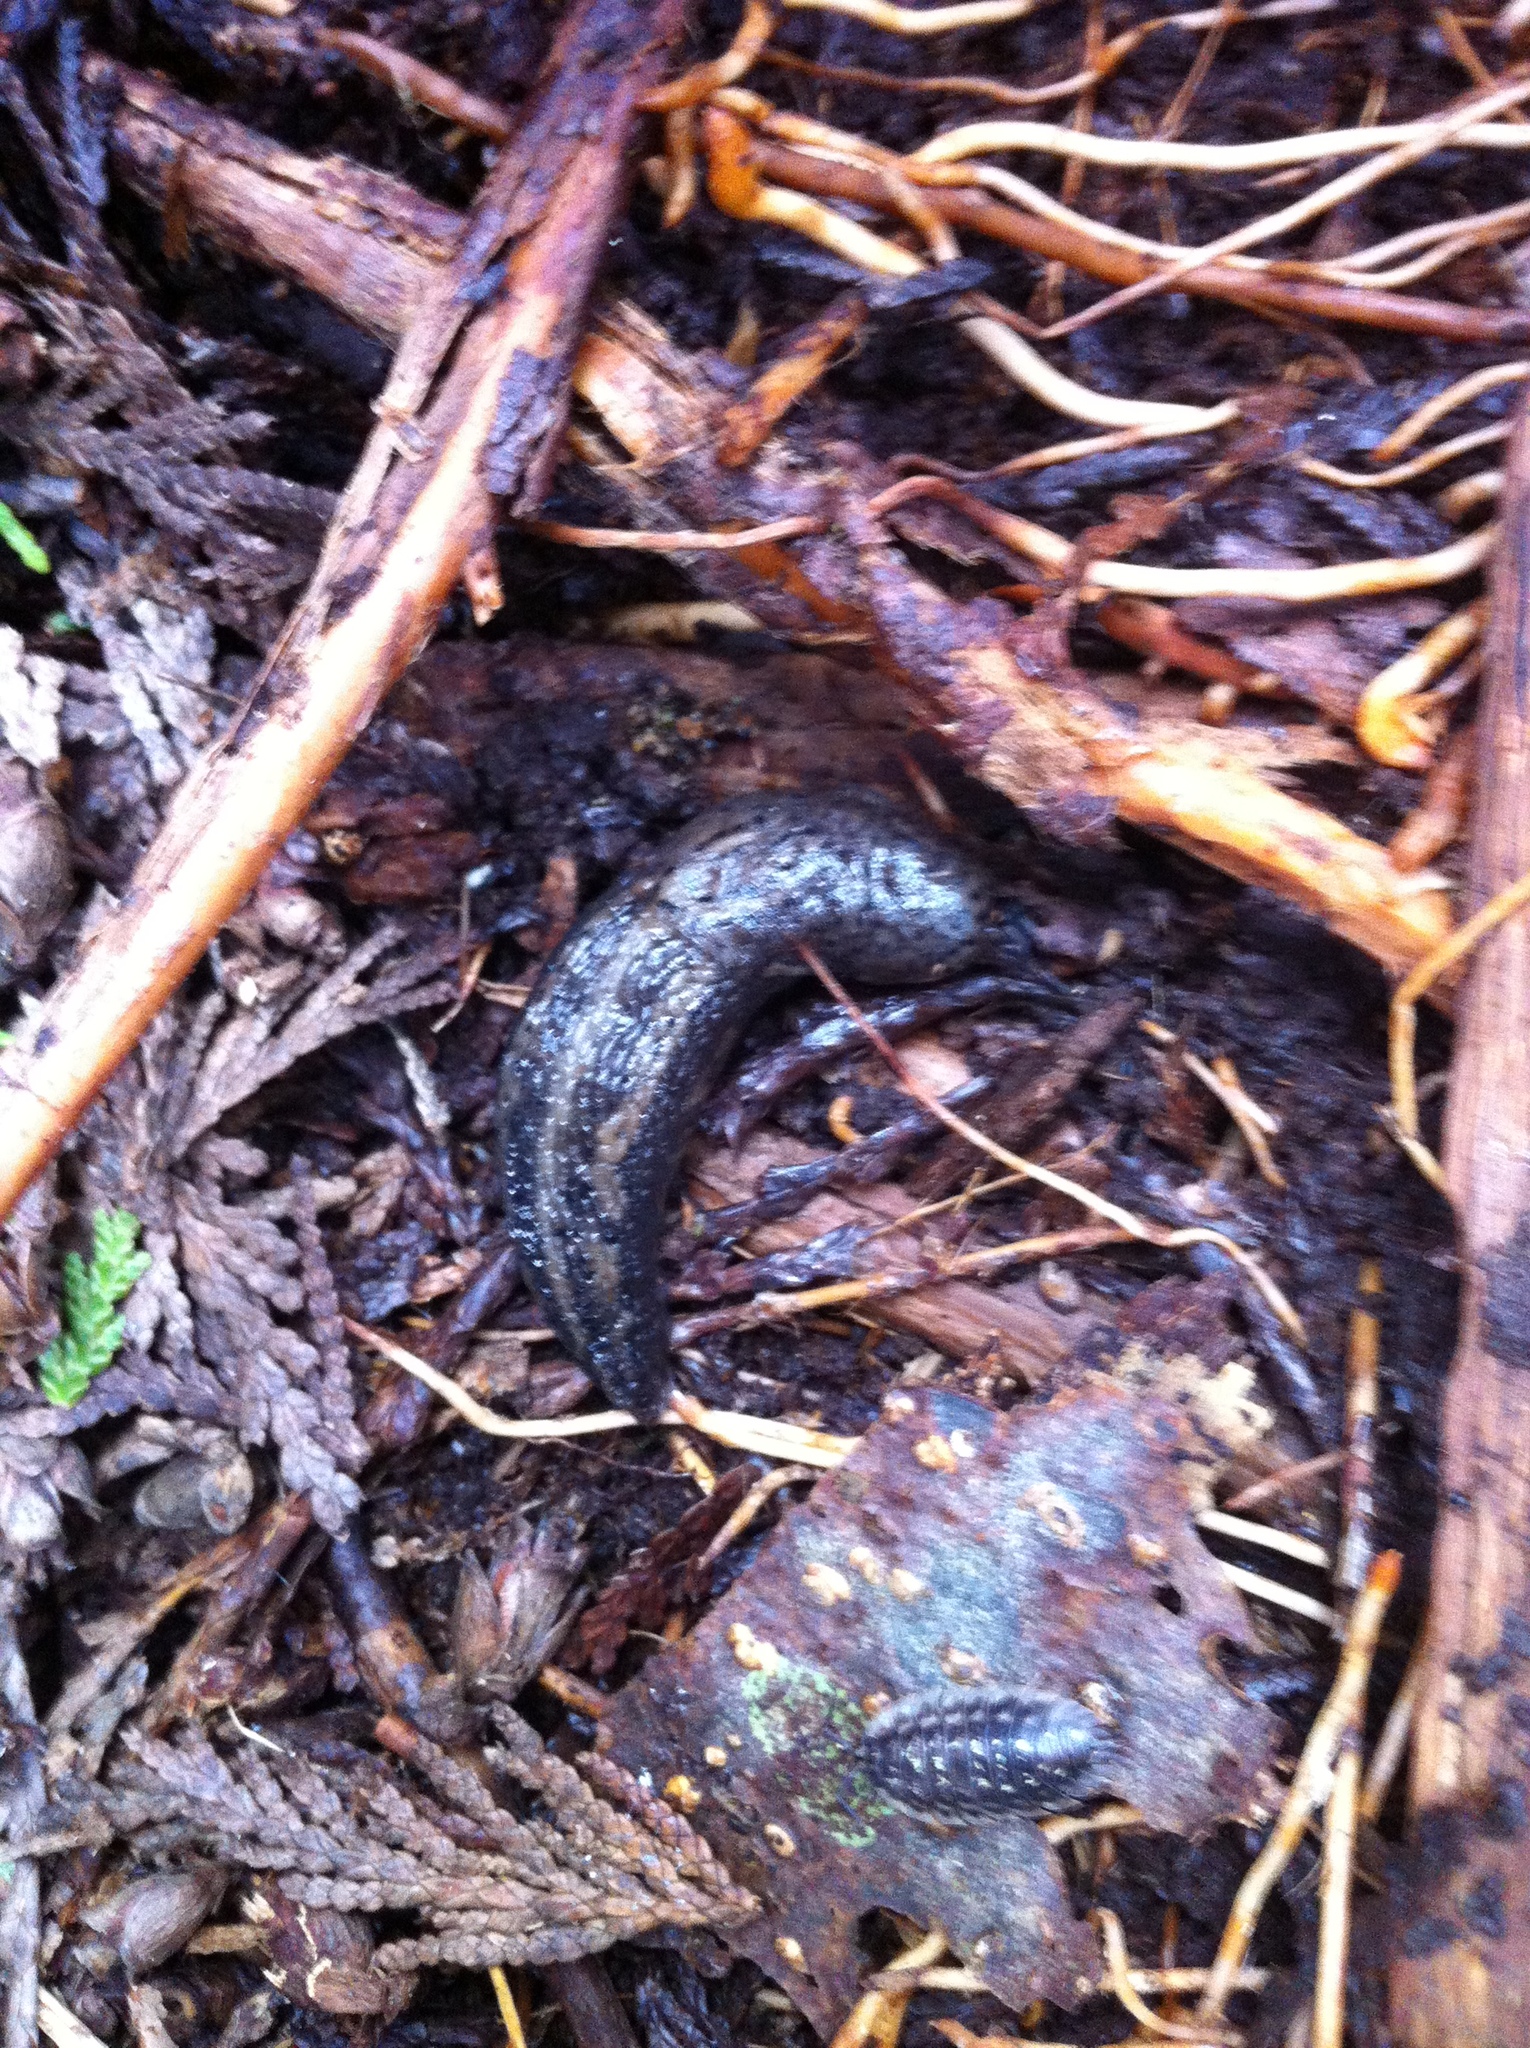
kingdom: Animalia
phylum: Mollusca
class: Gastropoda
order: Stylommatophora
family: Limacidae
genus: Limax
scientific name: Limax maximus
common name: Great grey slug
